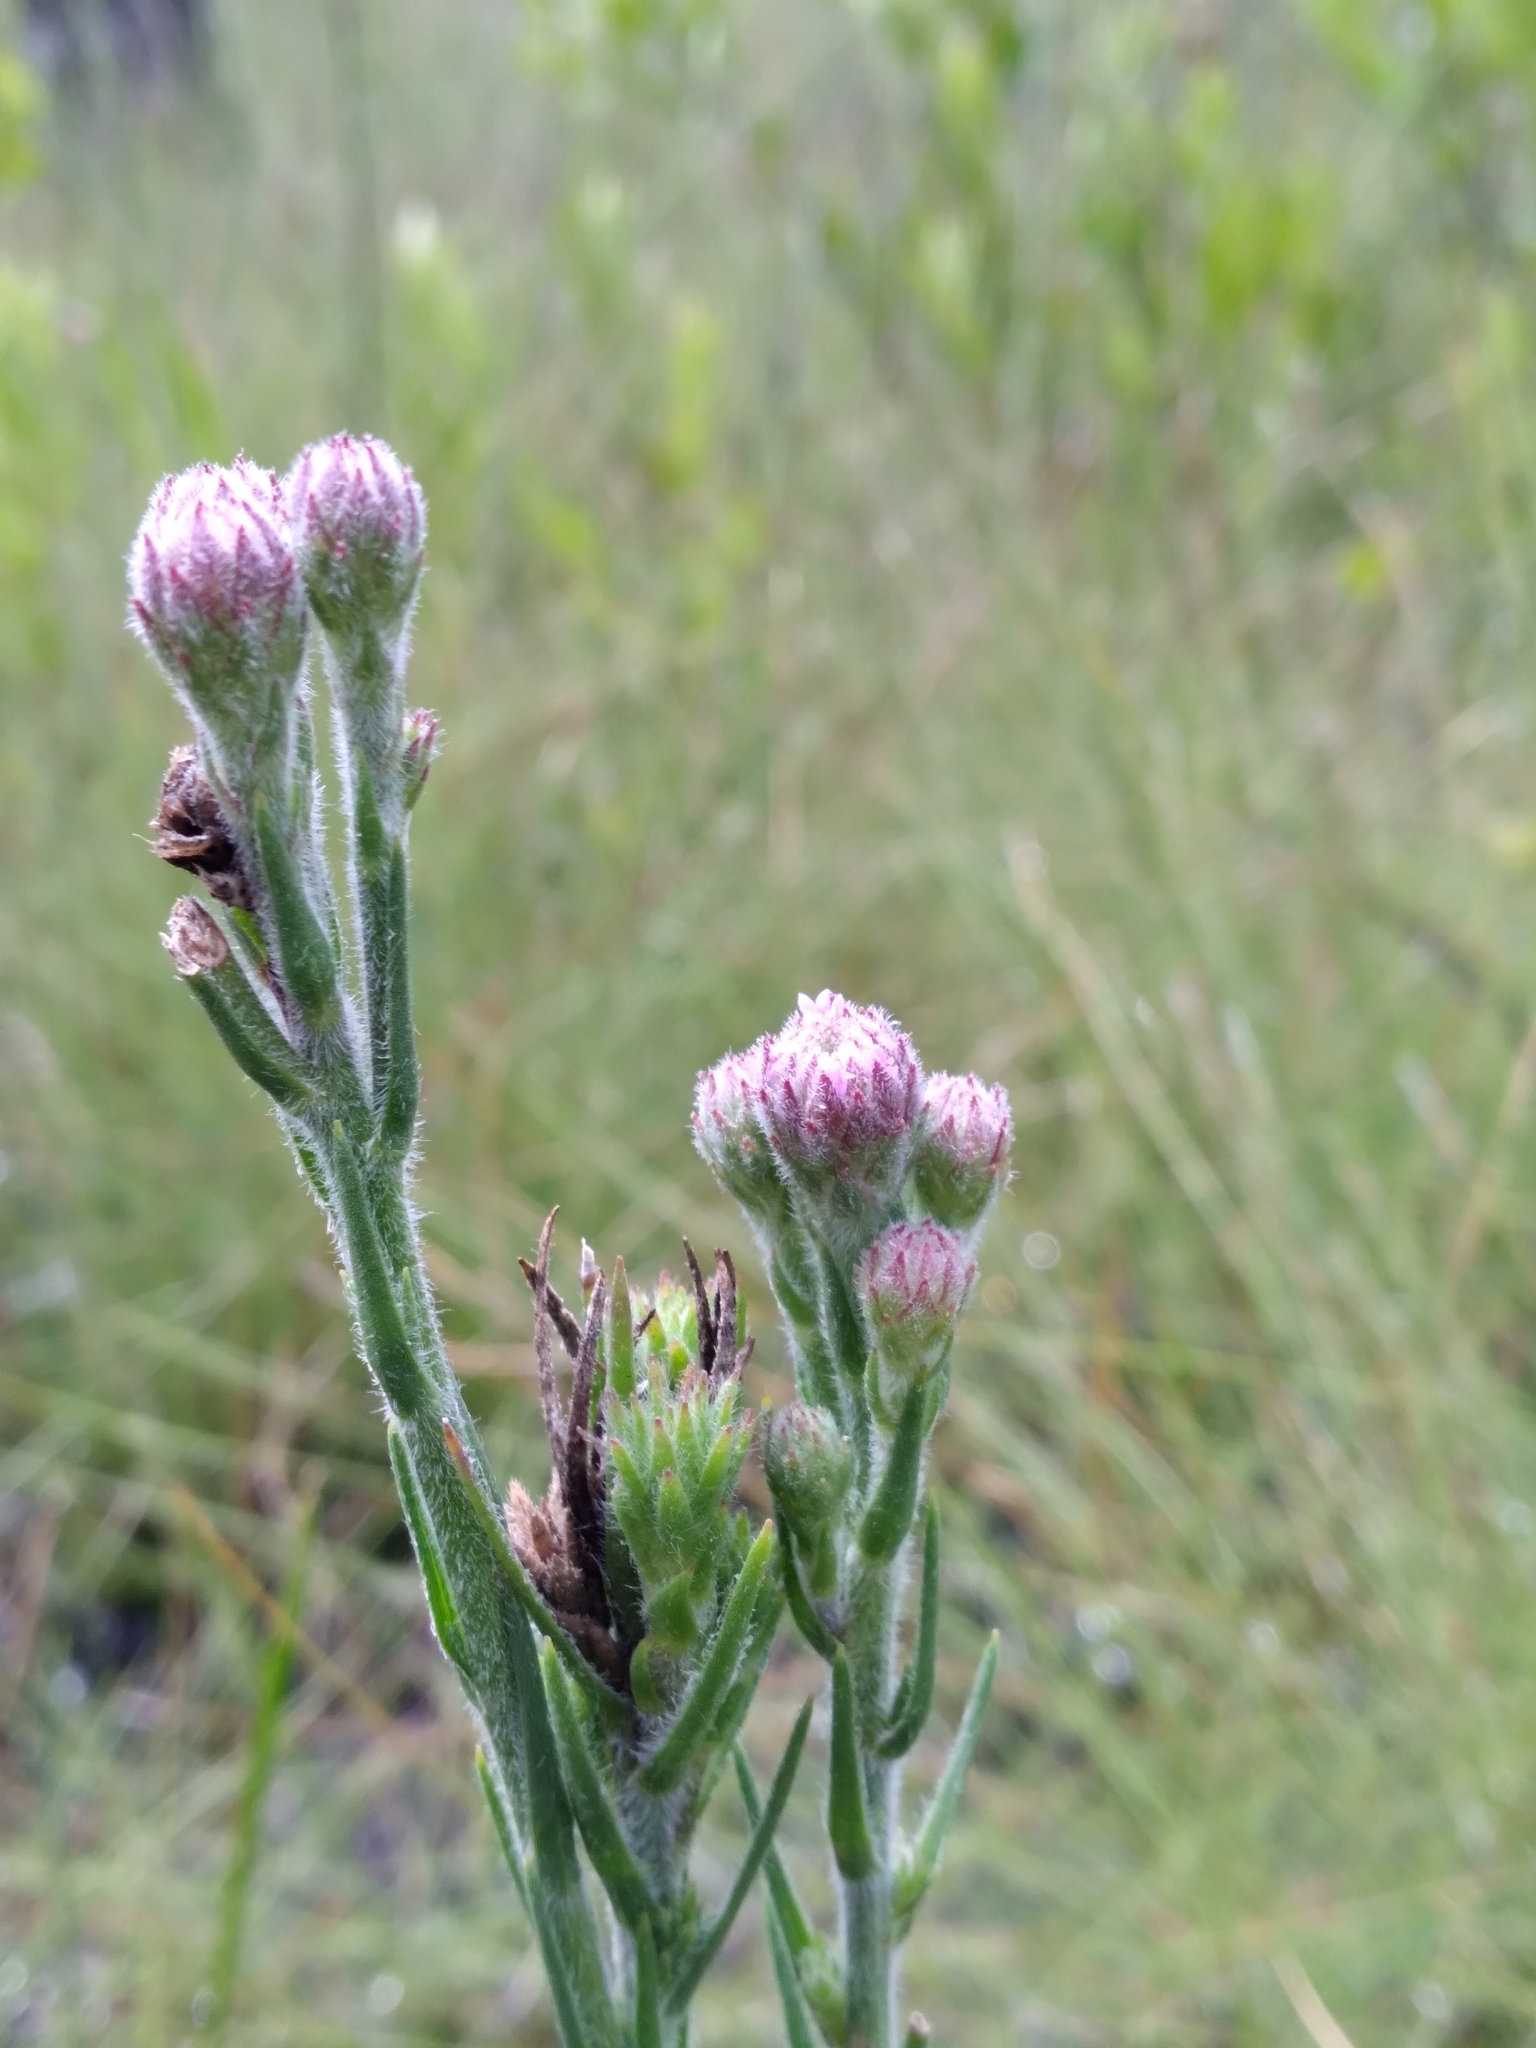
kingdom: Plantae
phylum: Tracheophyta
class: Magnoliopsida
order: Asterales
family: Asteraceae
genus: Carphephorus
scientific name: Carphephorus pseudoliatris
